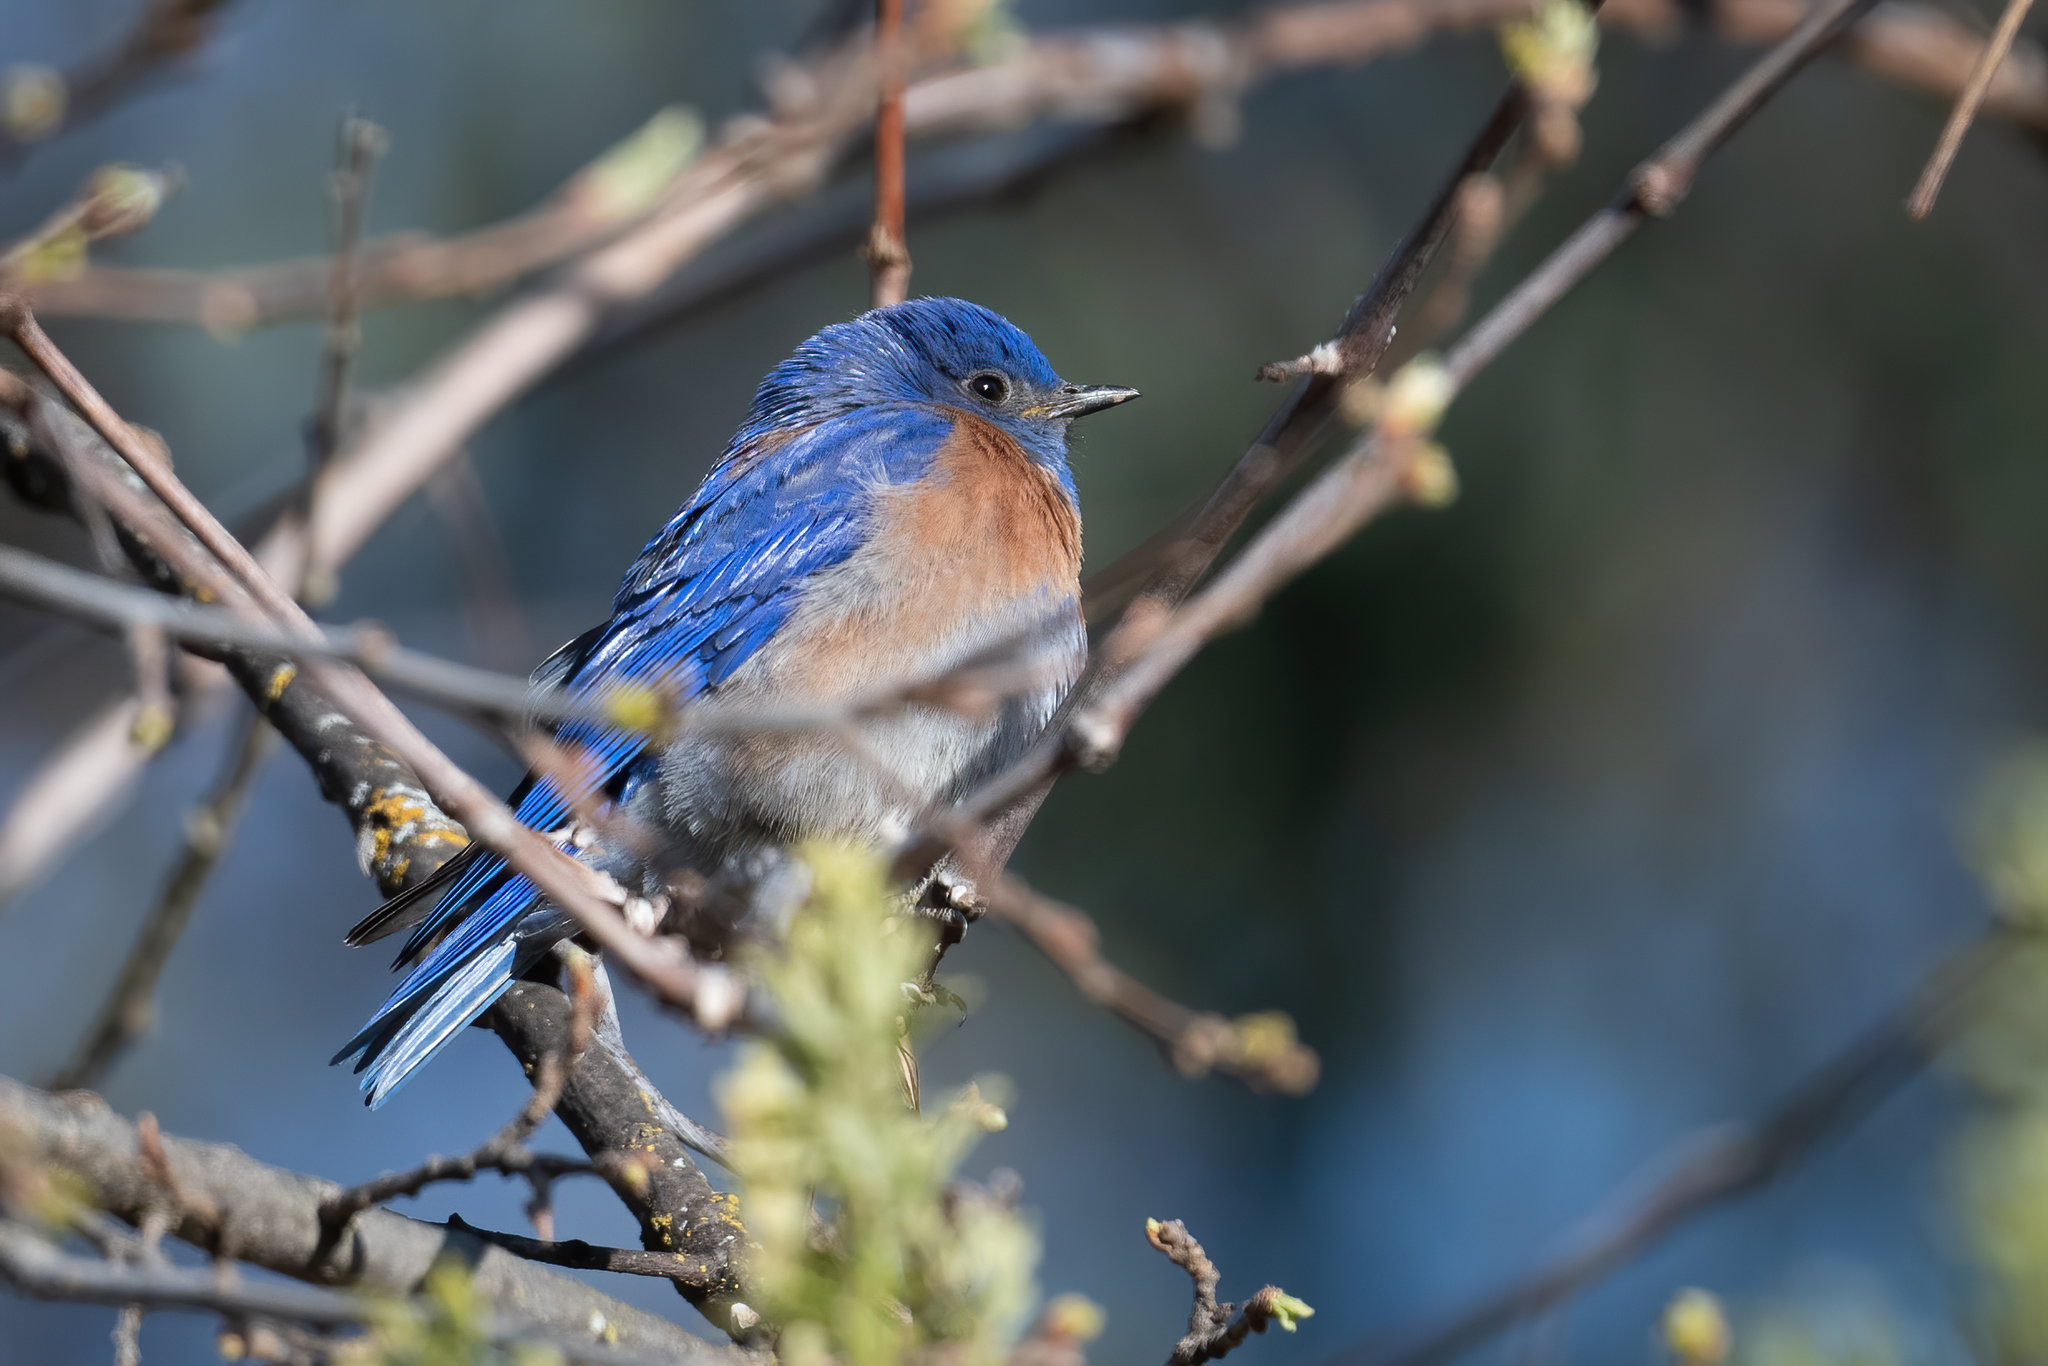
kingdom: Animalia
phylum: Chordata
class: Aves
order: Passeriformes
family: Turdidae
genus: Sialia
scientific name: Sialia mexicana
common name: Western bluebird
